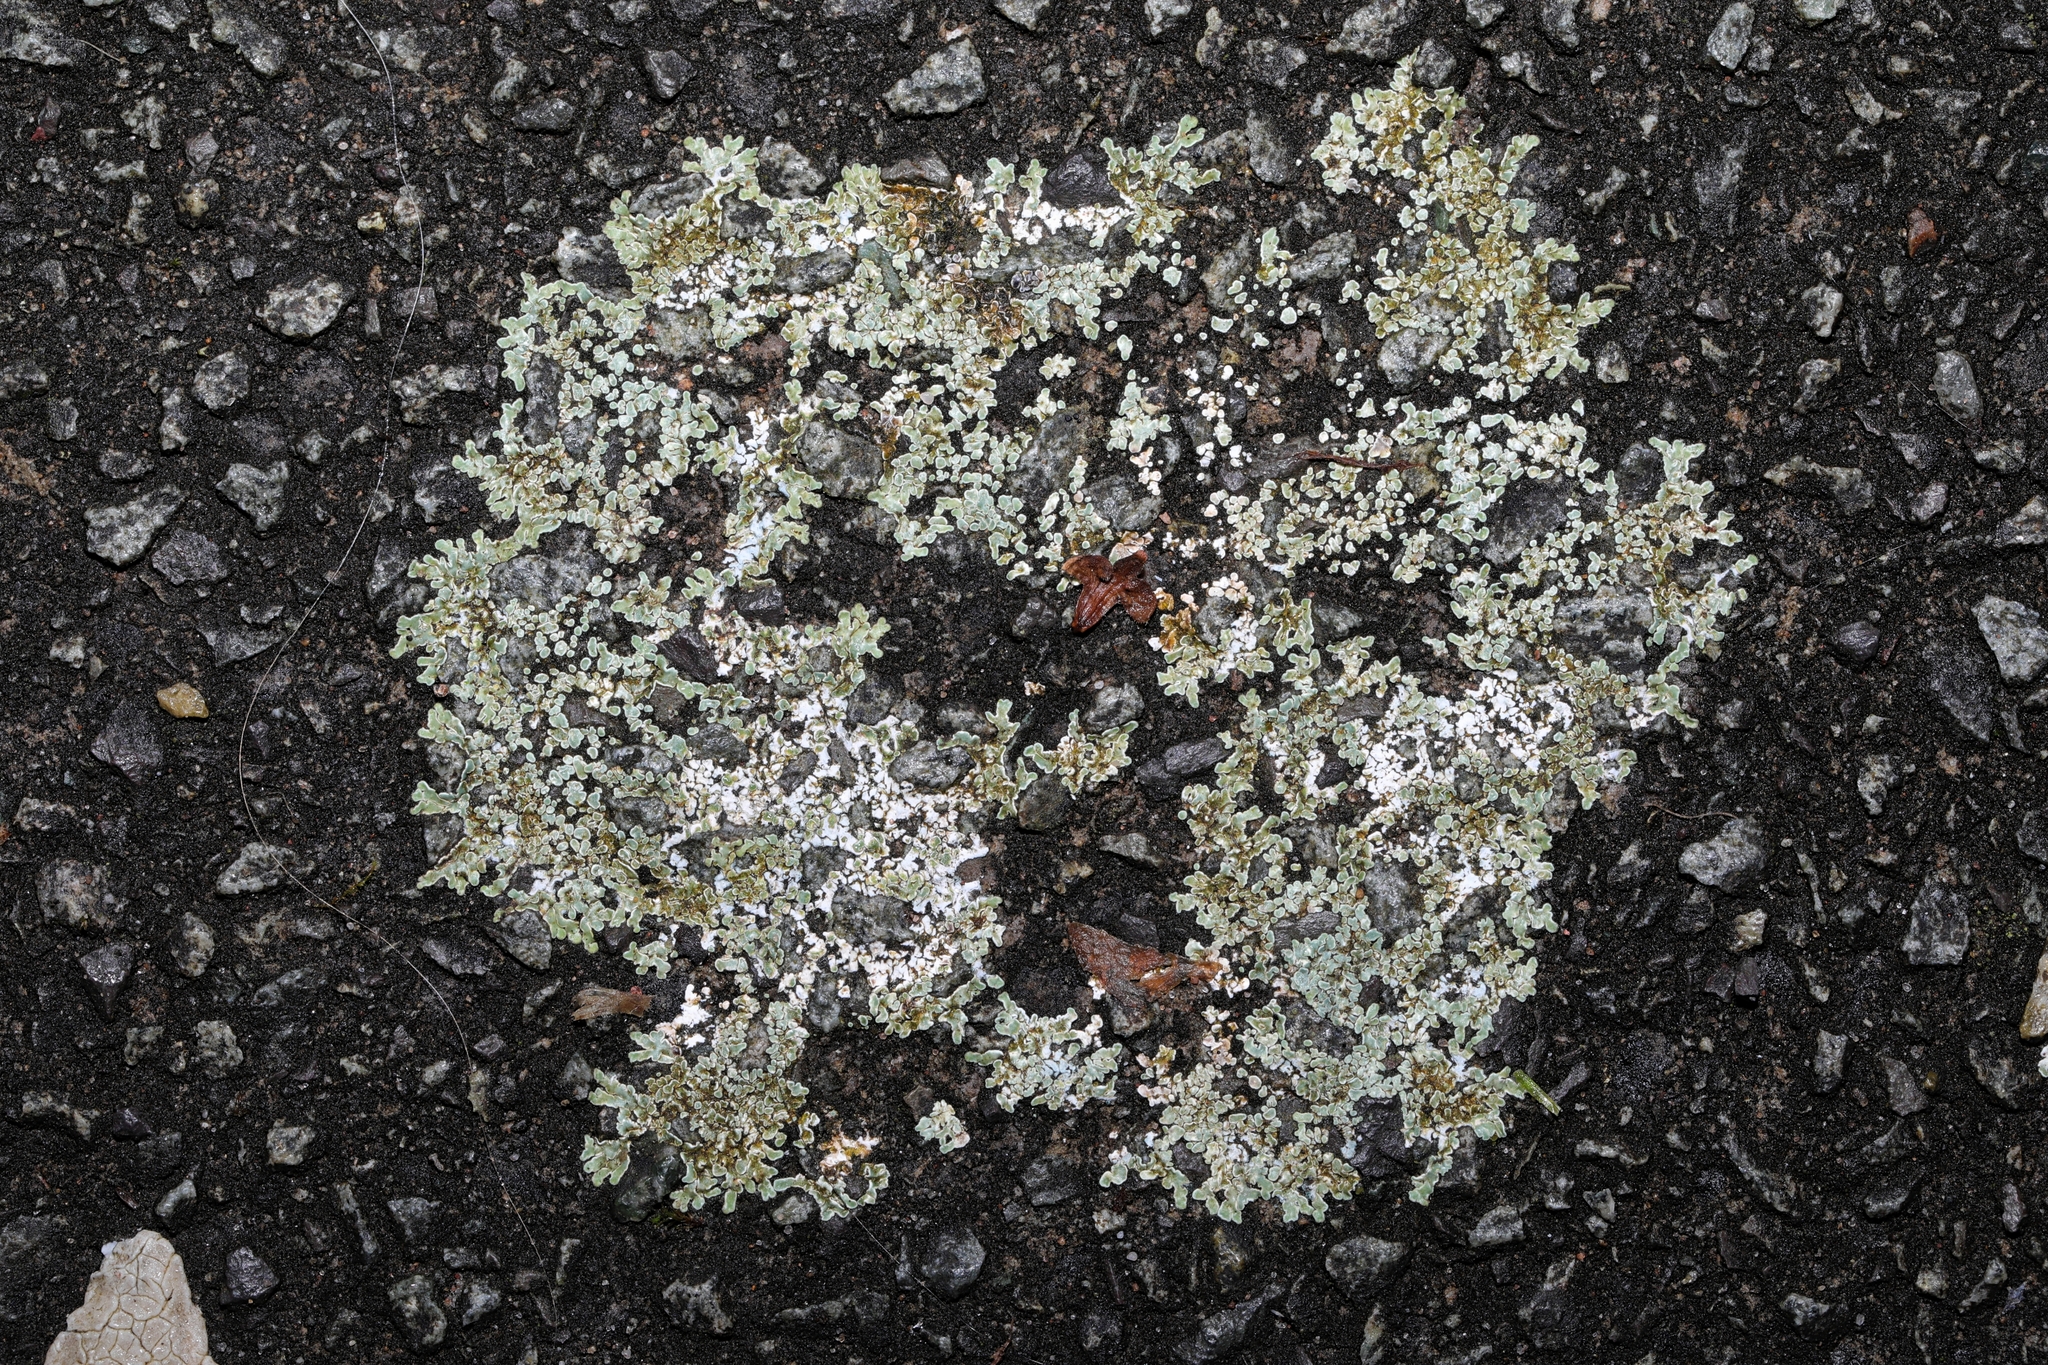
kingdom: Fungi
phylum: Ascomycota
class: Lecanoromycetes
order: Lecanorales
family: Lecanoraceae
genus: Protoparmeliopsis
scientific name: Protoparmeliopsis muralis
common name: Stonewall rim lichen
